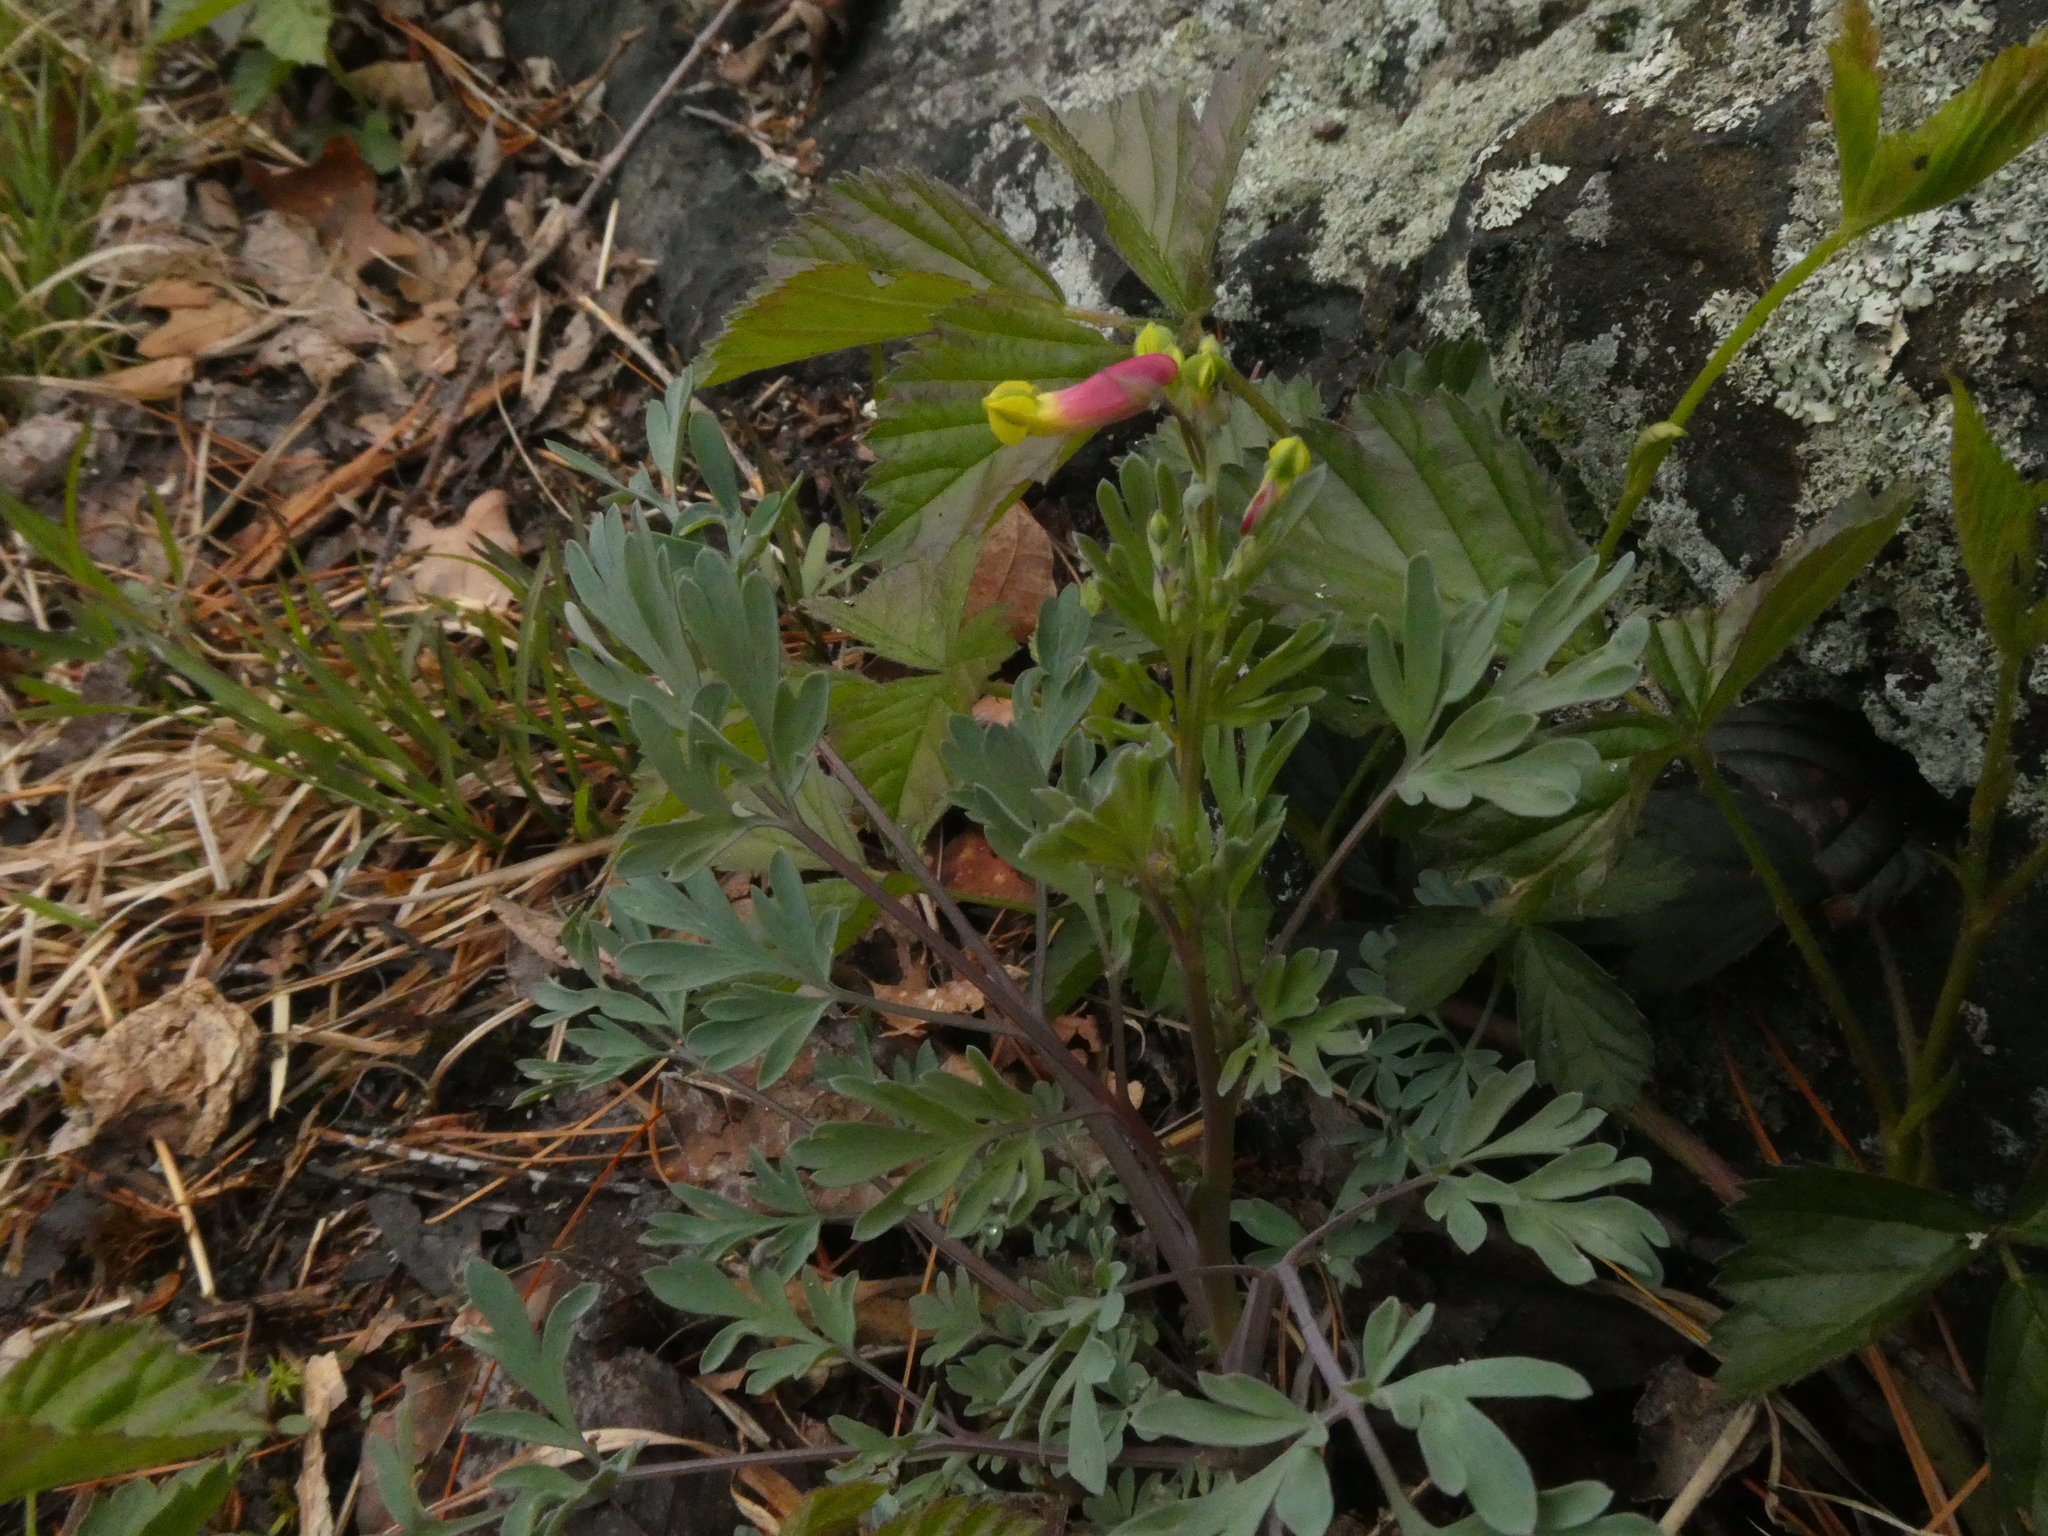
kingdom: Plantae
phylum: Tracheophyta
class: Magnoliopsida
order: Ranunculales
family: Papaveraceae
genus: Capnoides
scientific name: Capnoides sempervirens
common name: Rock harlequin
